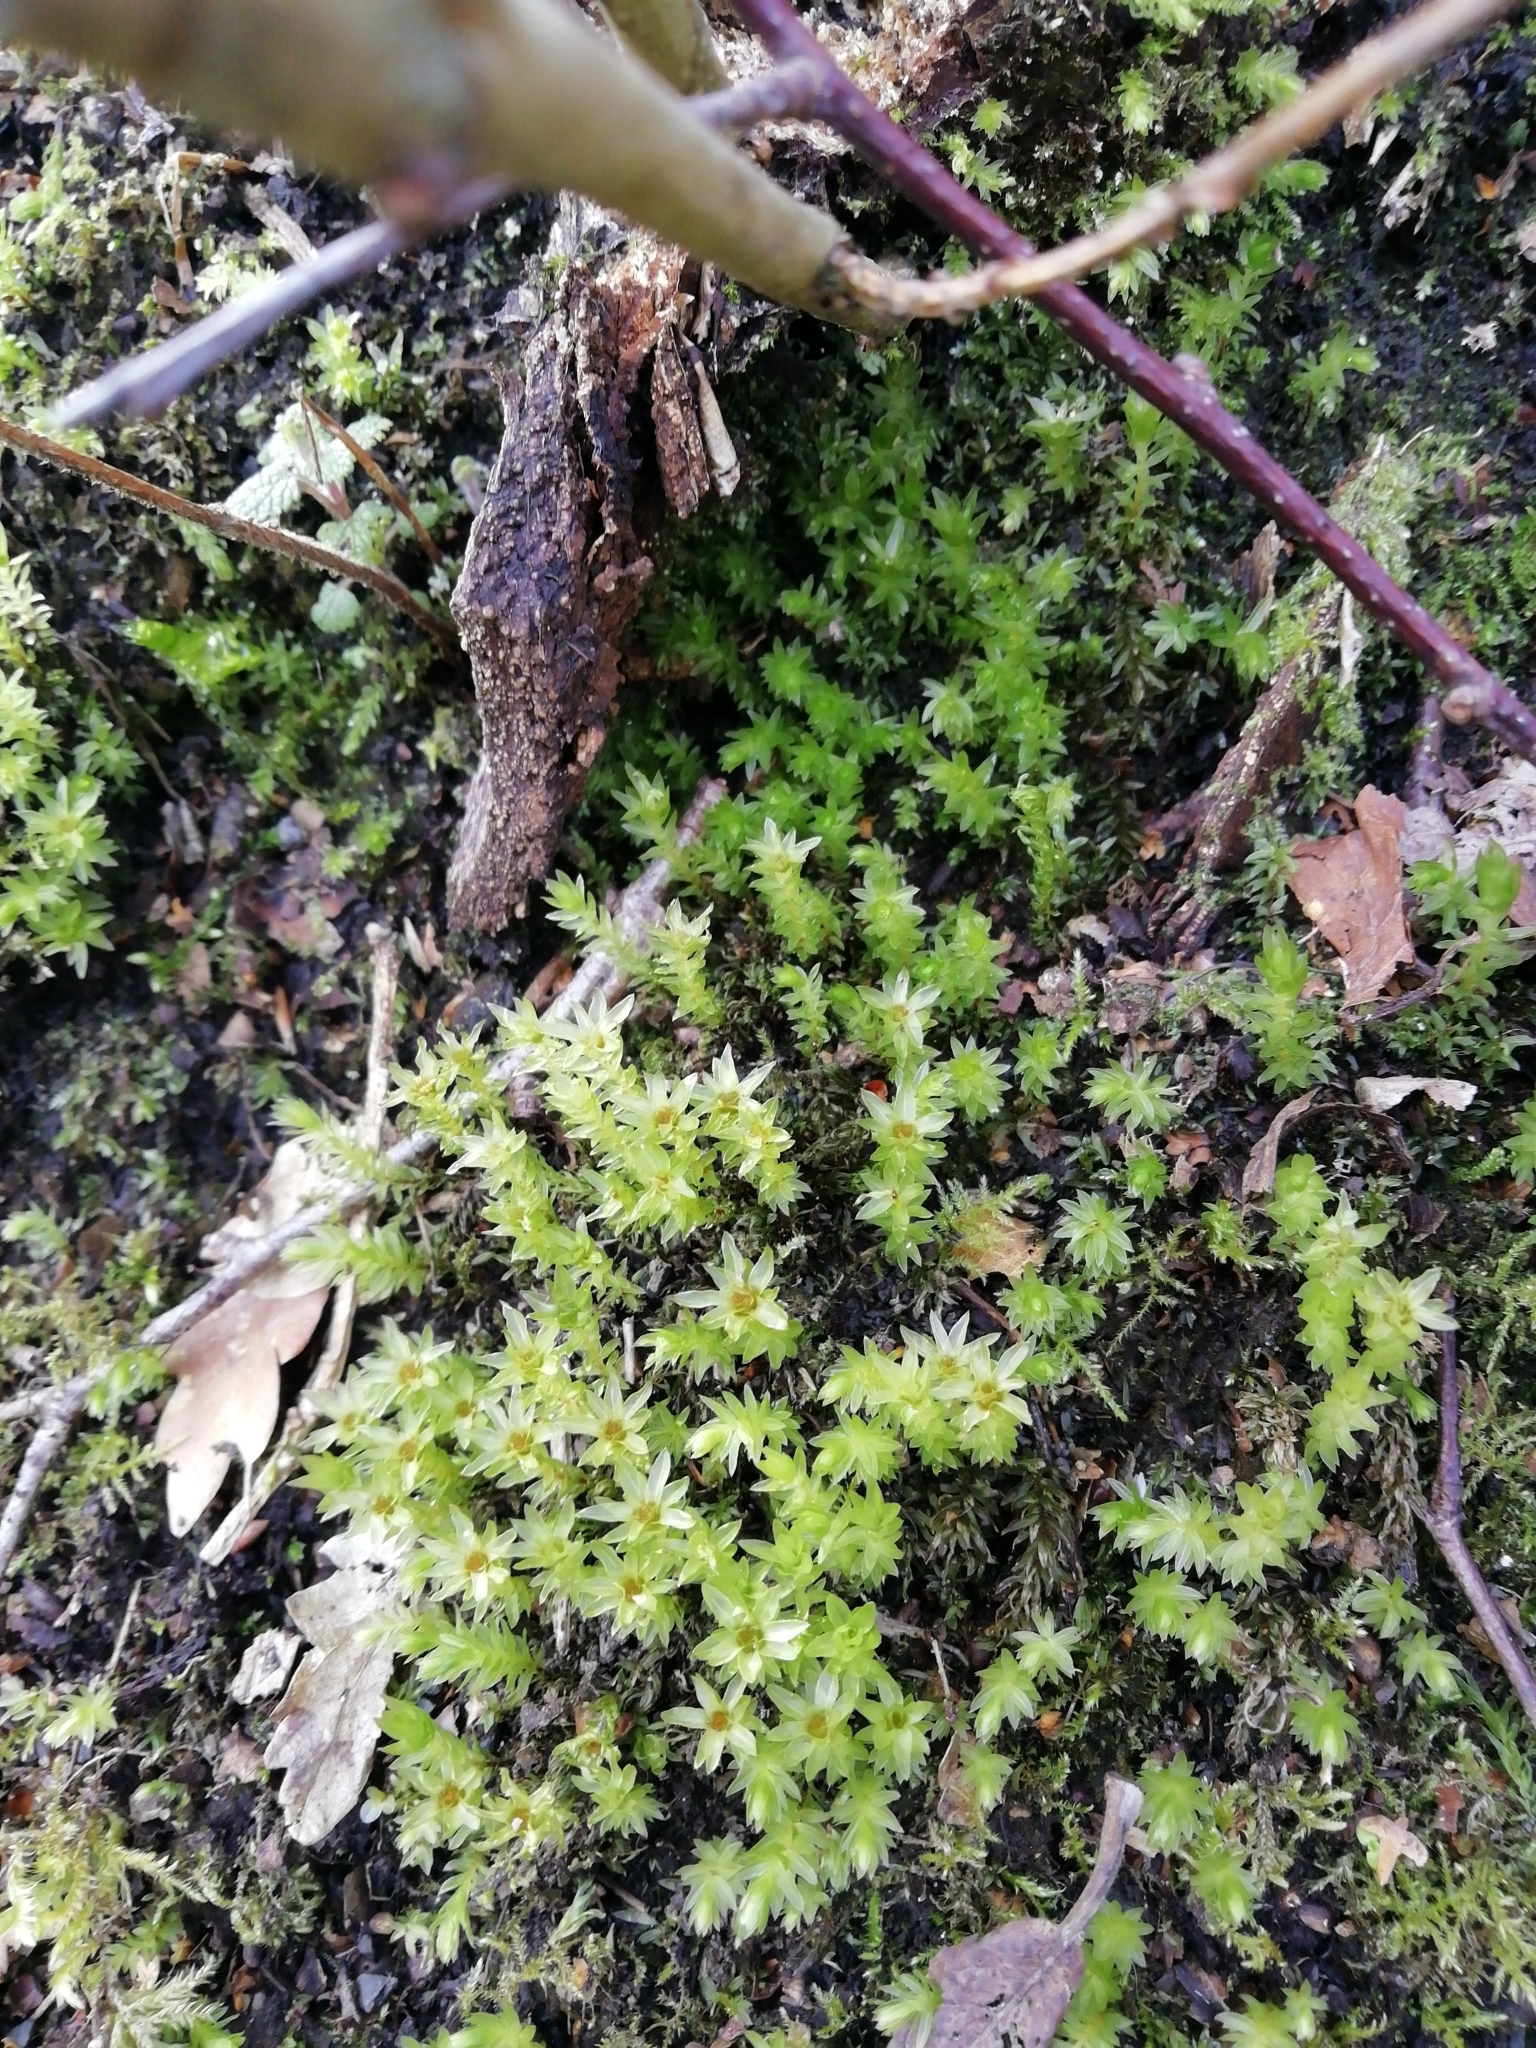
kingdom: Plantae
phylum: Bryophyta
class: Bryopsida
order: Bryales
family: Mniaceae
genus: Mnium
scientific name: Mnium hornum
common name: Swan's-neck leafy moss
